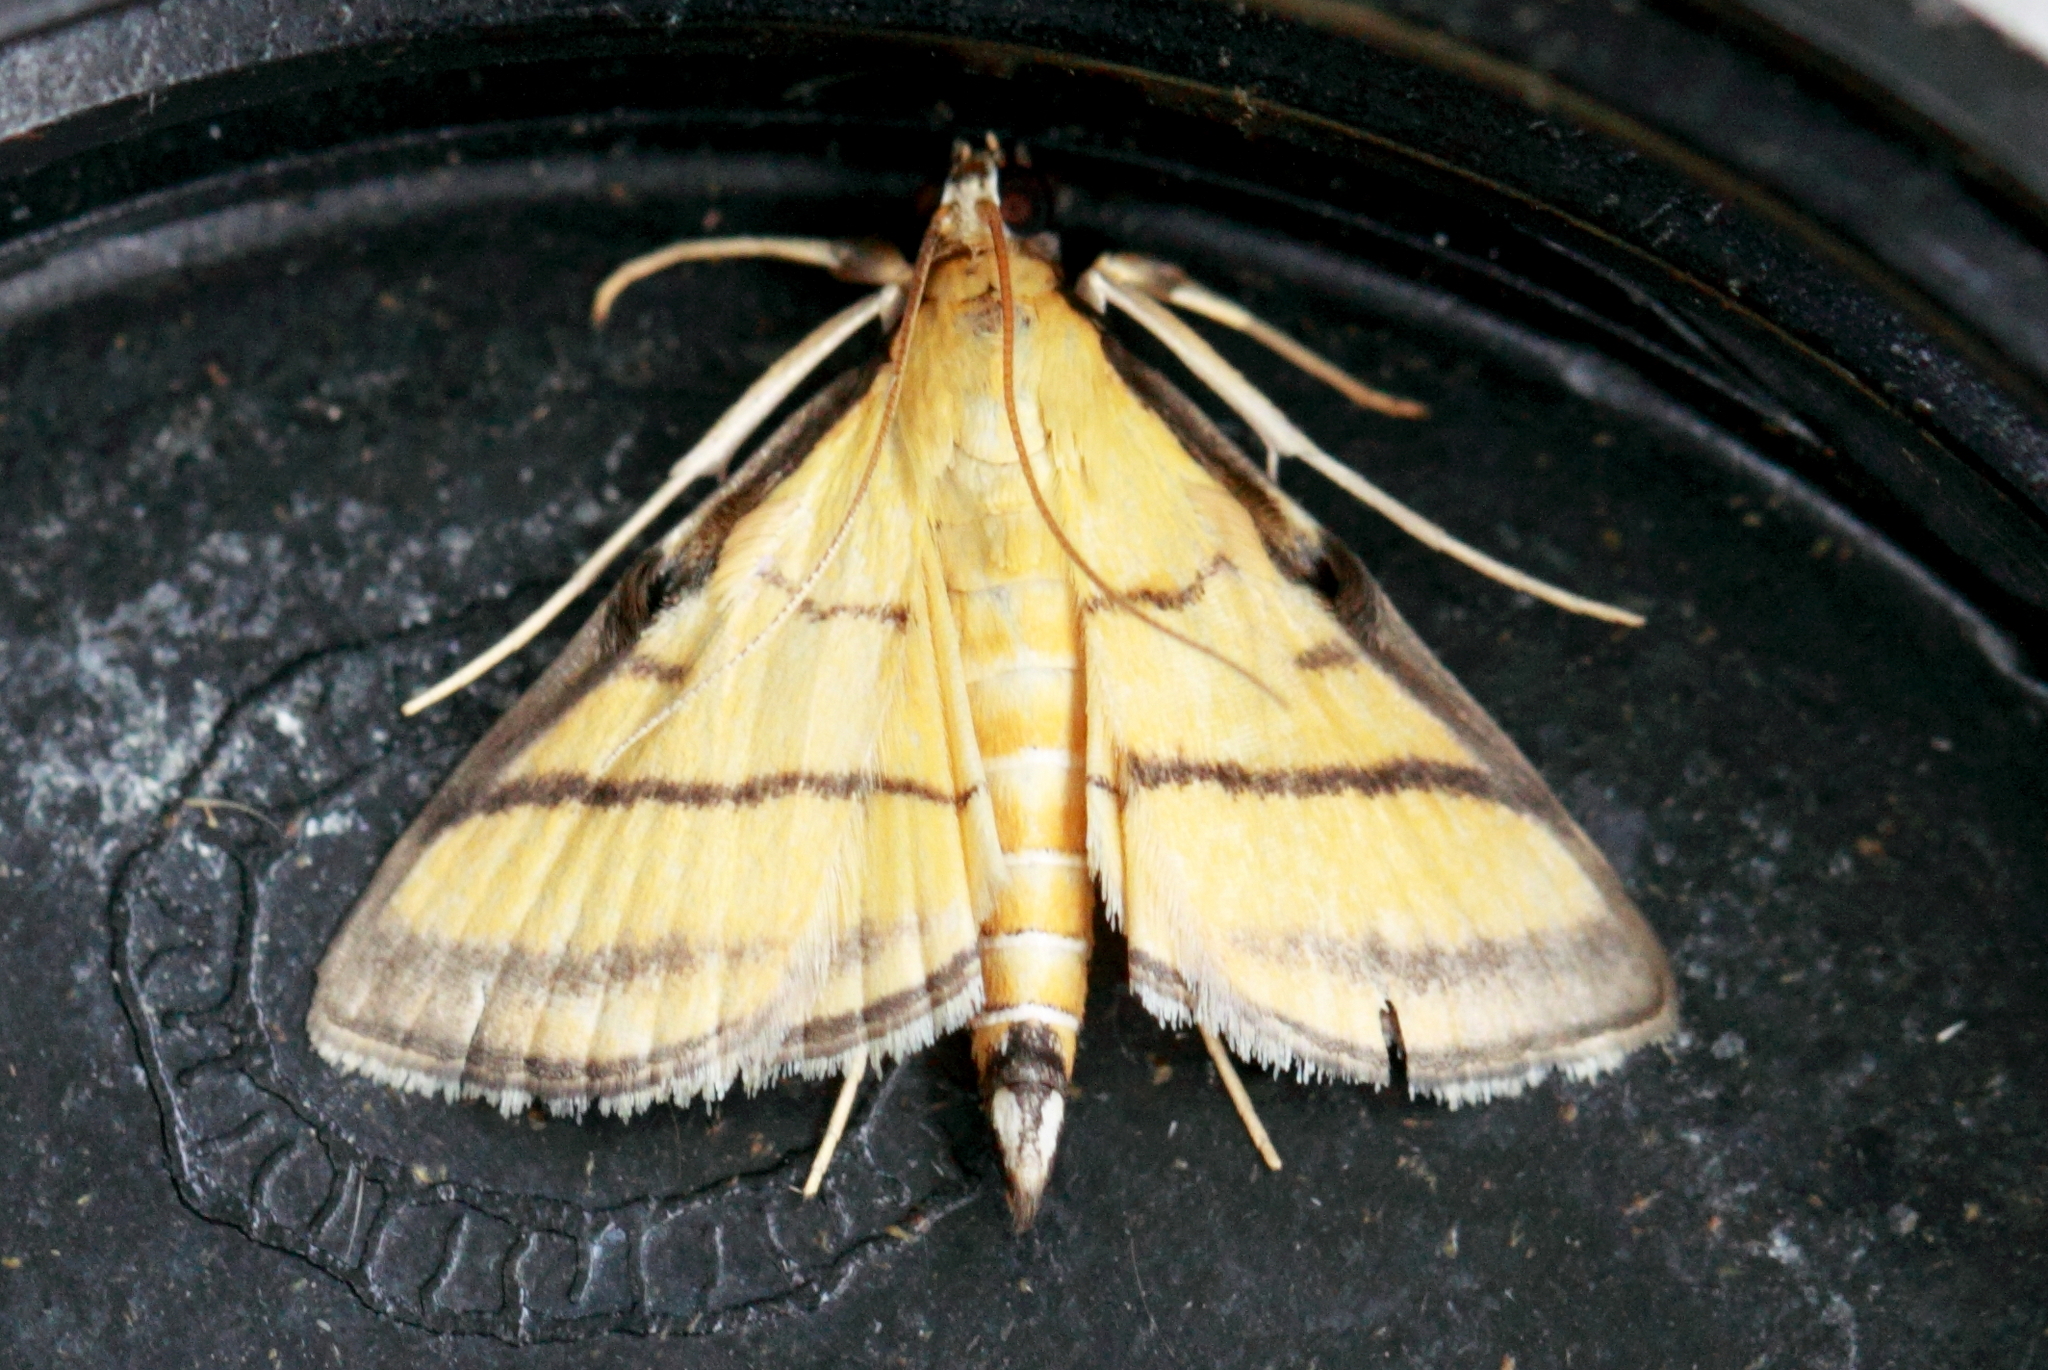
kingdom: Animalia
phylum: Arthropoda
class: Insecta
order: Lepidoptera
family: Crambidae
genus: Cnaphalocrocis
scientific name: Cnaphalocrocis medinalis
